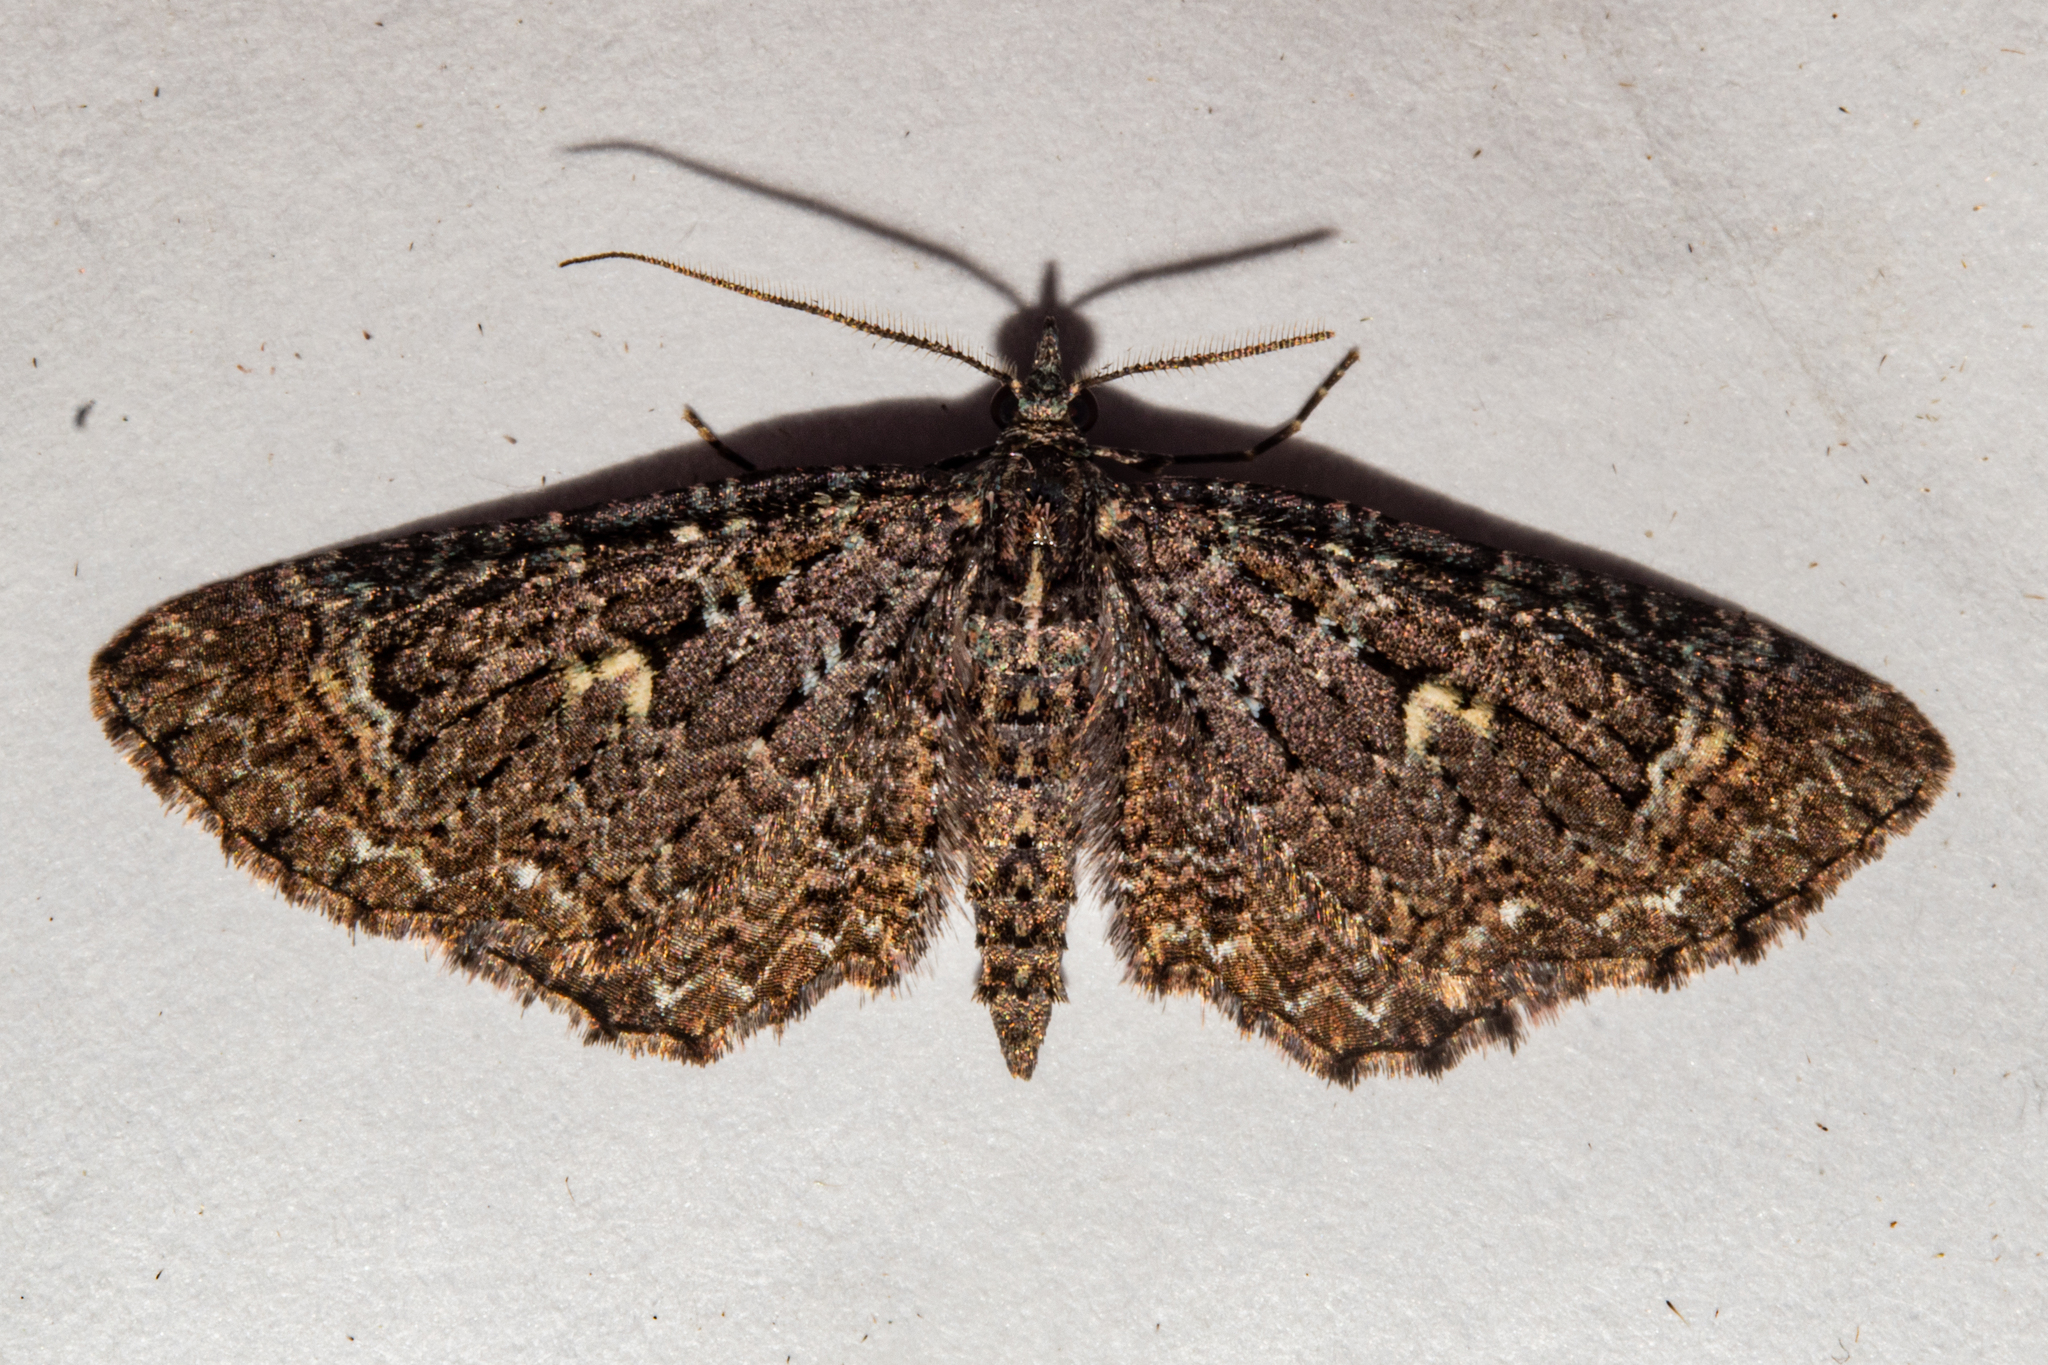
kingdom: Animalia
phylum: Arthropoda
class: Insecta
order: Lepidoptera
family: Geometridae
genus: Pasiphila
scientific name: Pasiphila lunata
